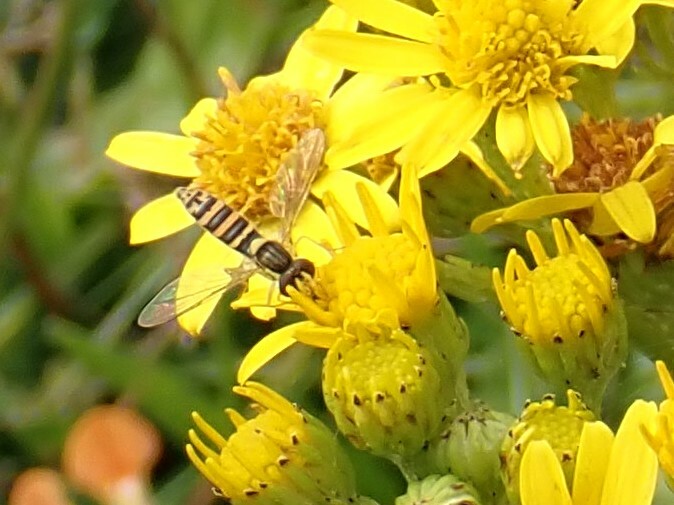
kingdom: Animalia
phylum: Arthropoda
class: Insecta
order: Diptera
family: Syrphidae
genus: Sphaerophoria
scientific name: Sphaerophoria
